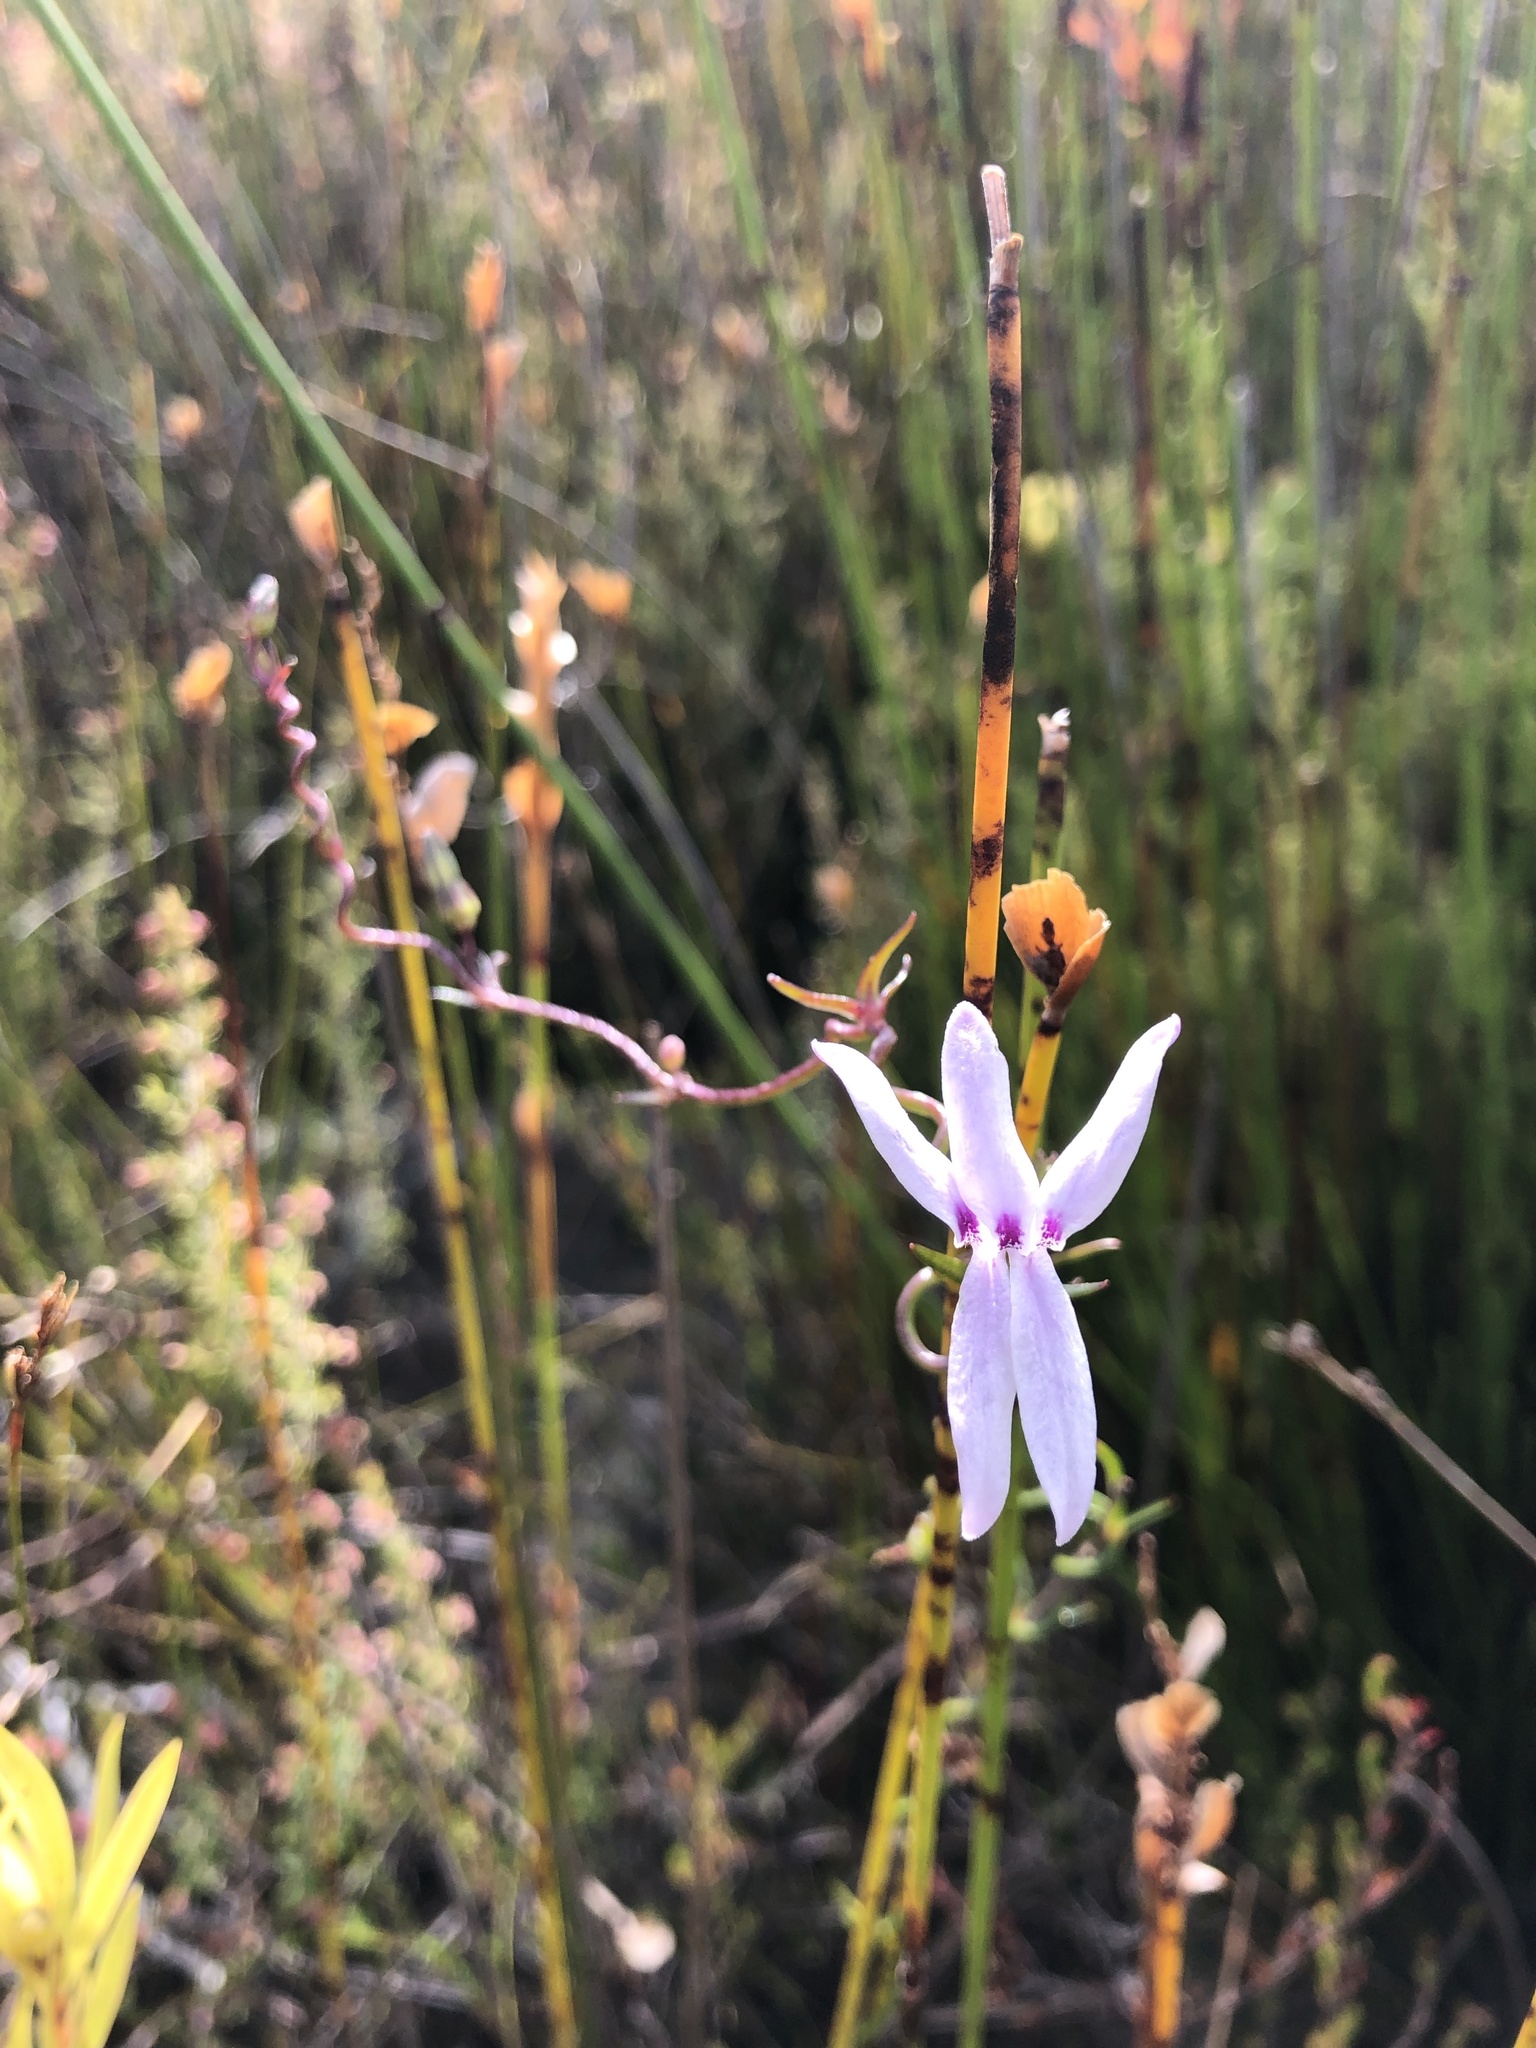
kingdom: Plantae
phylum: Tracheophyta
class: Magnoliopsida
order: Asterales
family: Campanulaceae
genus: Cyphia
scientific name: Cyphia volubilis
